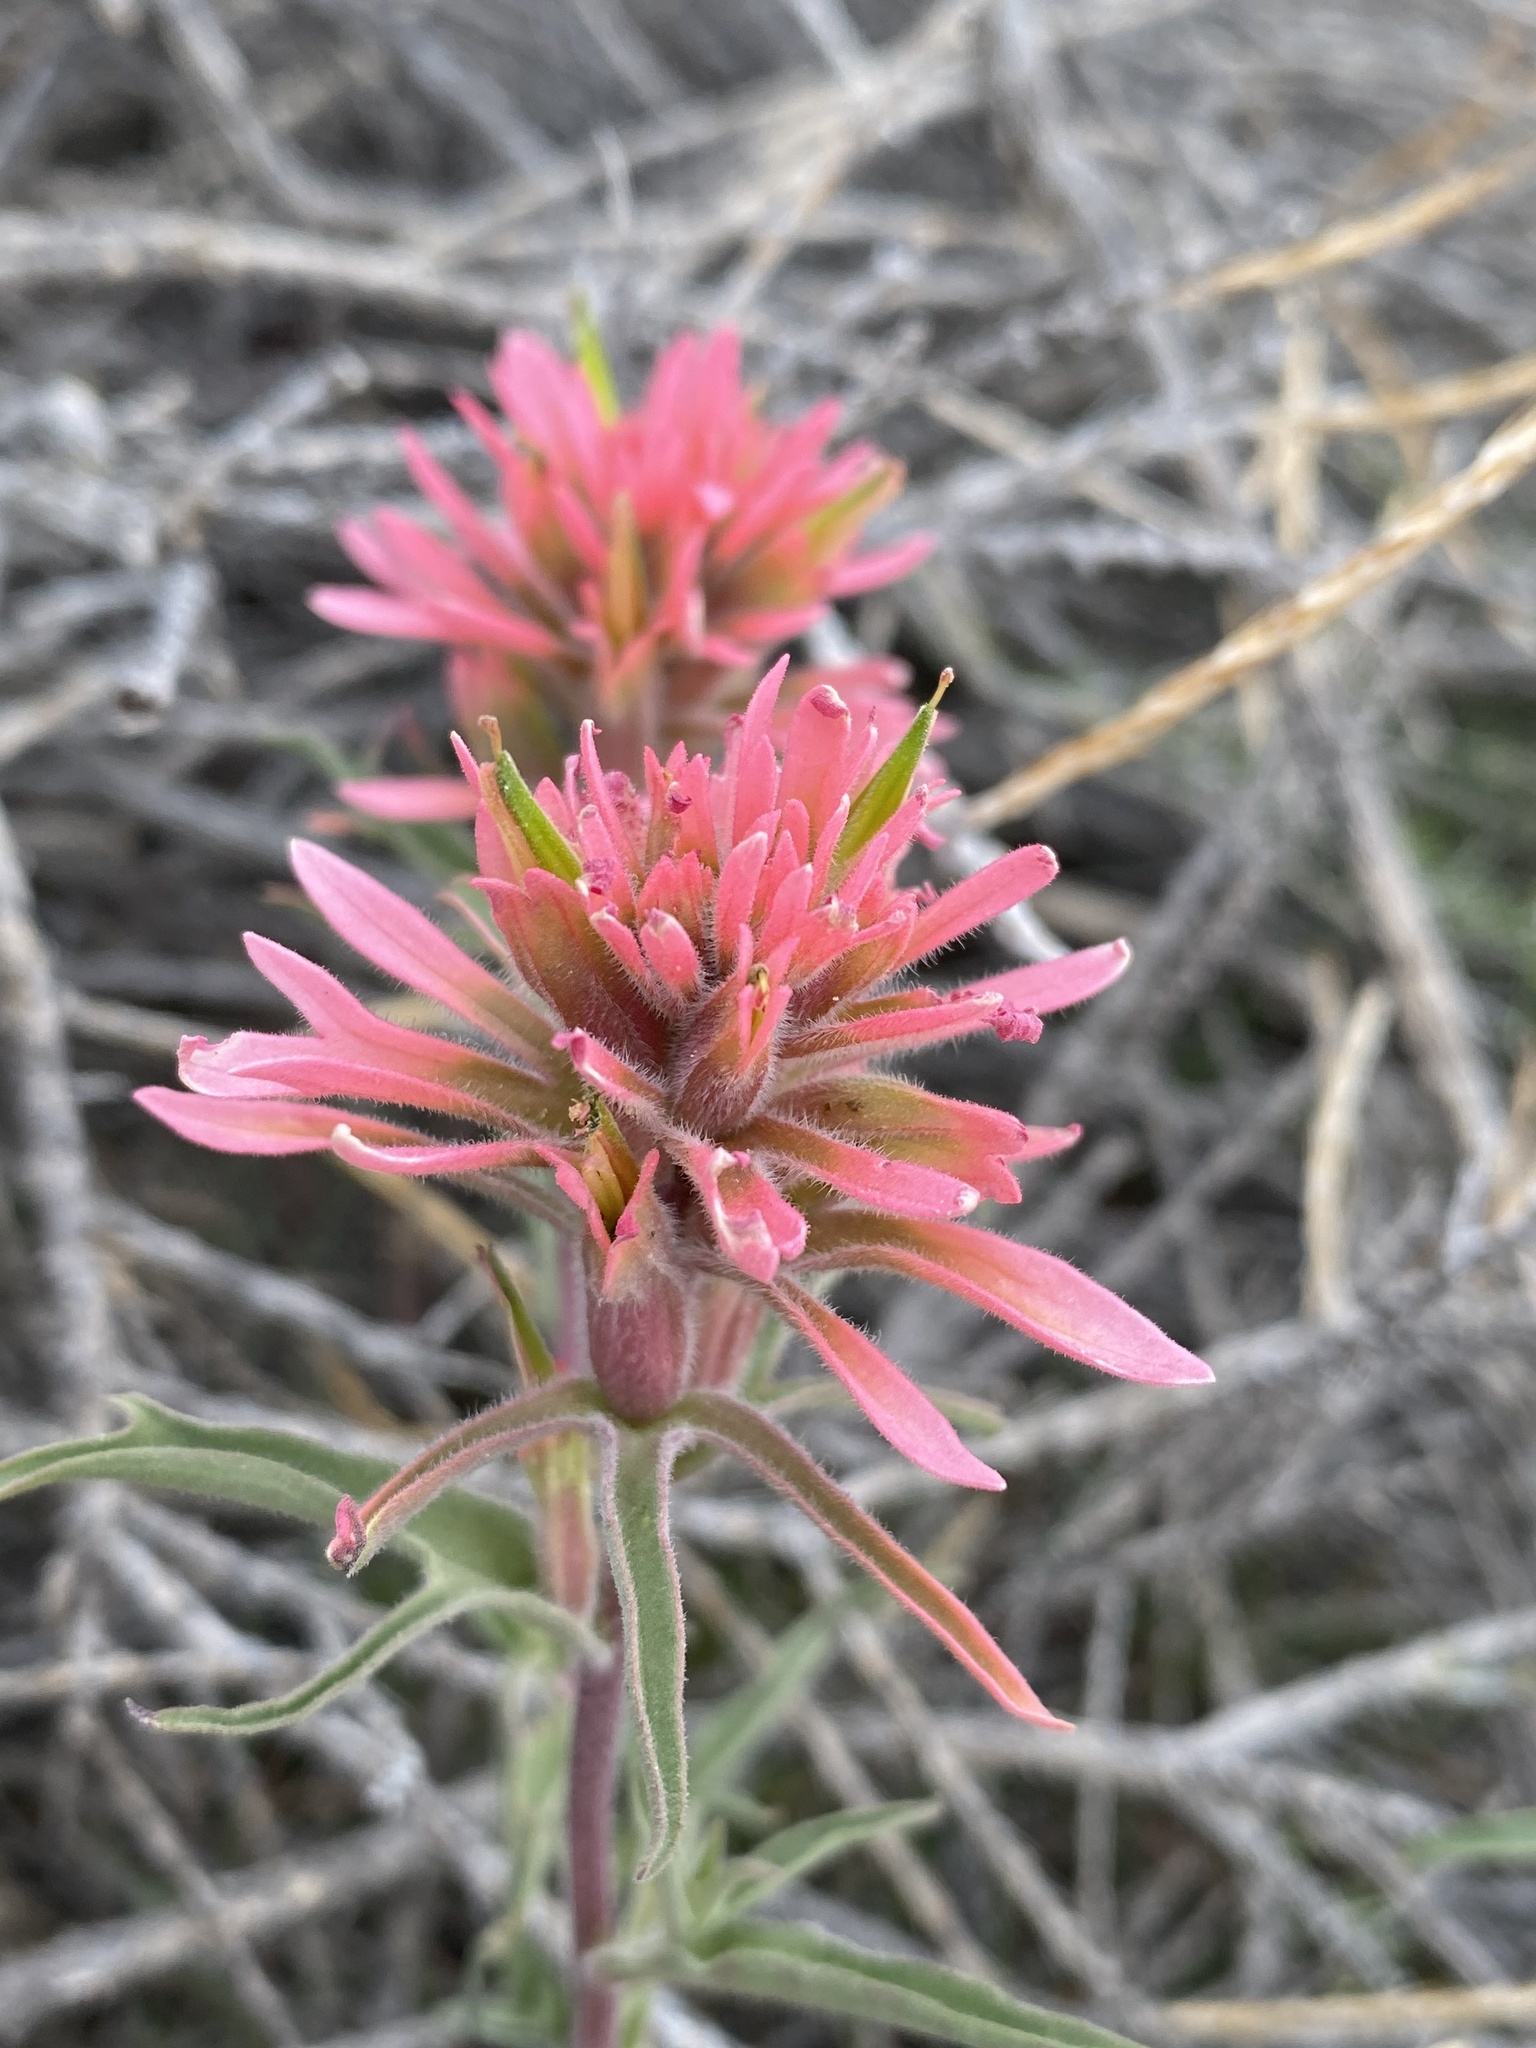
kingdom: Plantae
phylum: Tracheophyta
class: Magnoliopsida
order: Lamiales
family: Orobanchaceae
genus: Castilleja
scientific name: Castilleja angustifolia
